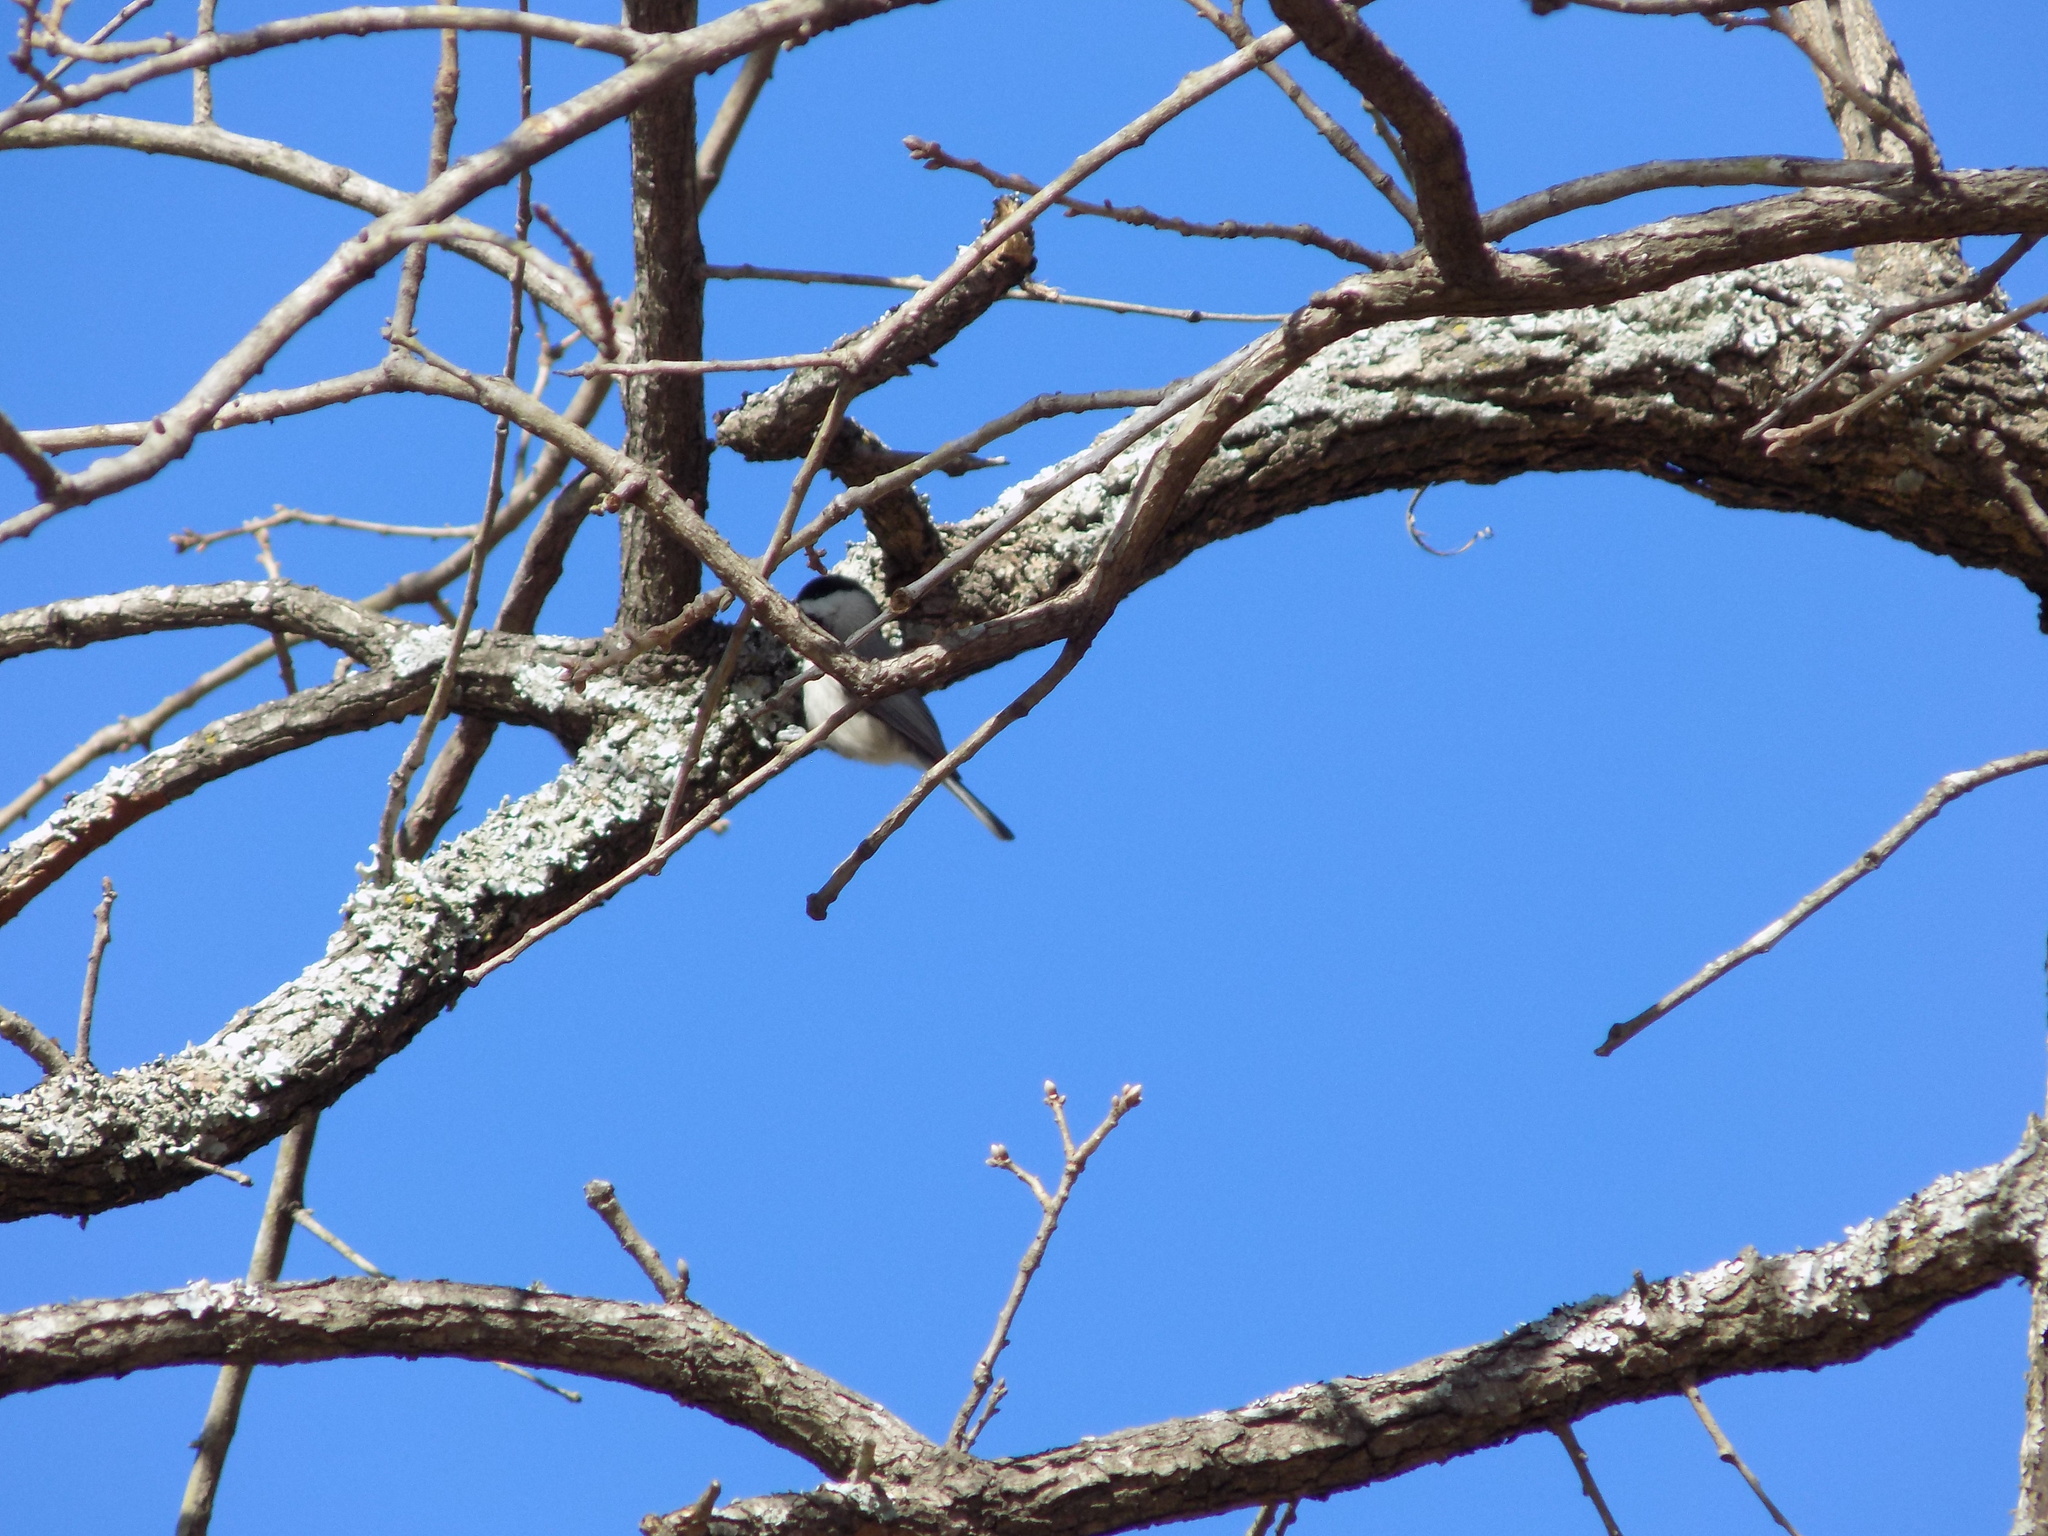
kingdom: Animalia
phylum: Chordata
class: Aves
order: Passeriformes
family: Paridae
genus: Poecile
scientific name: Poecile carolinensis
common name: Carolina chickadee
